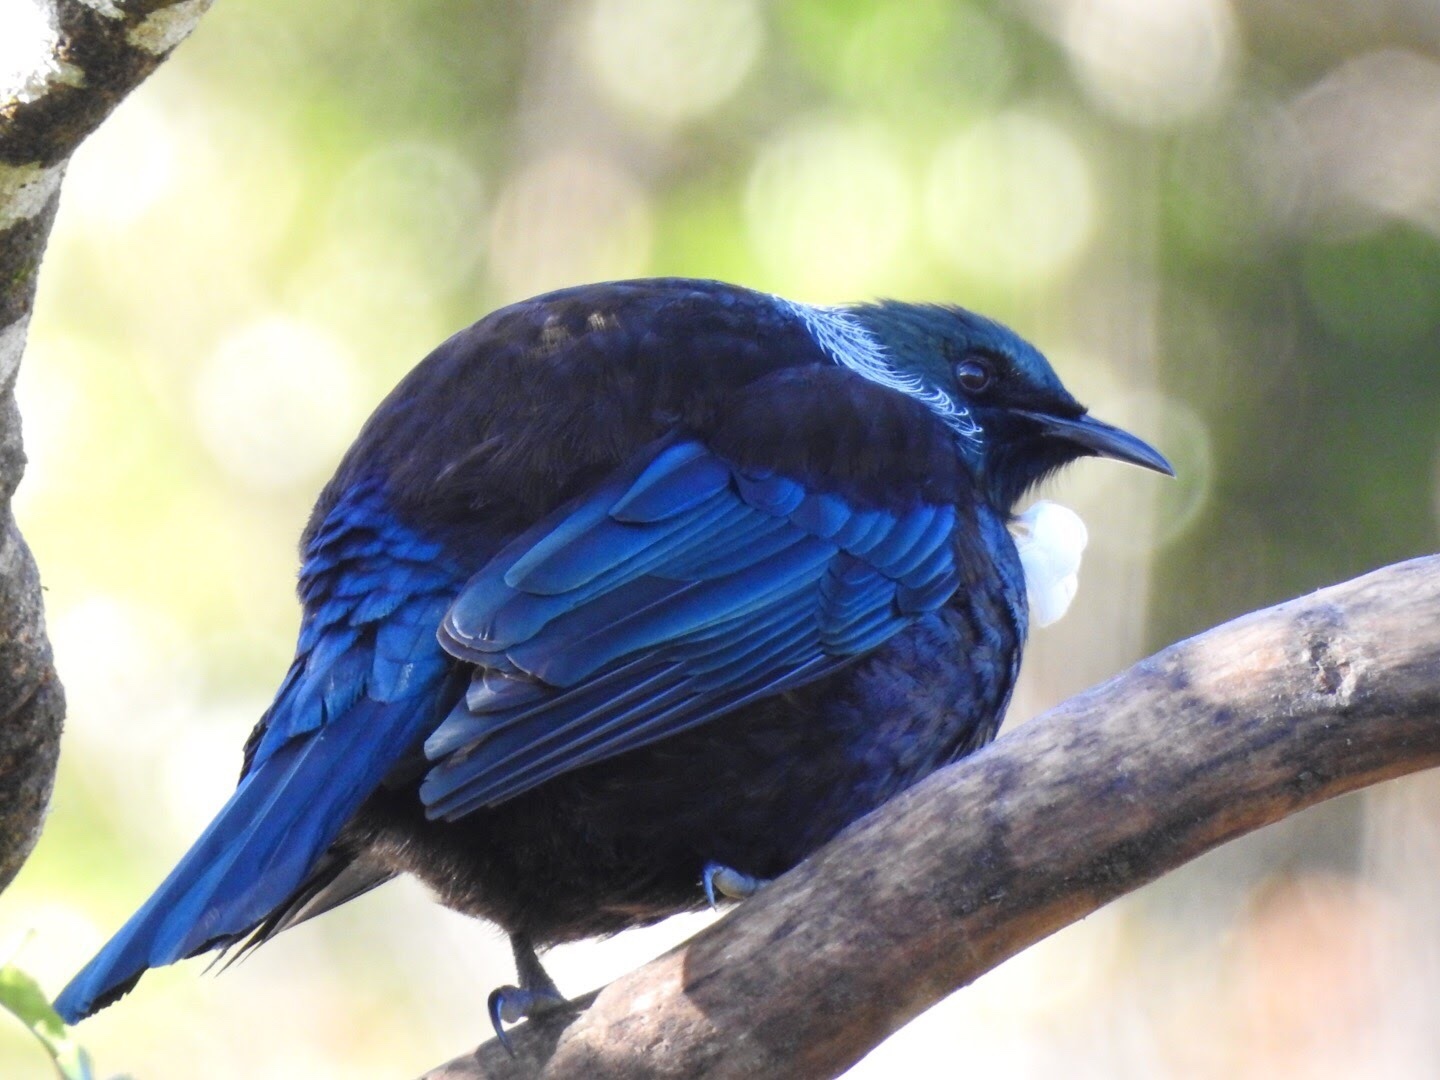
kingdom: Animalia
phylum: Chordata
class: Aves
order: Passeriformes
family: Meliphagidae
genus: Prosthemadera
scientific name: Prosthemadera novaeseelandiae
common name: Tui
